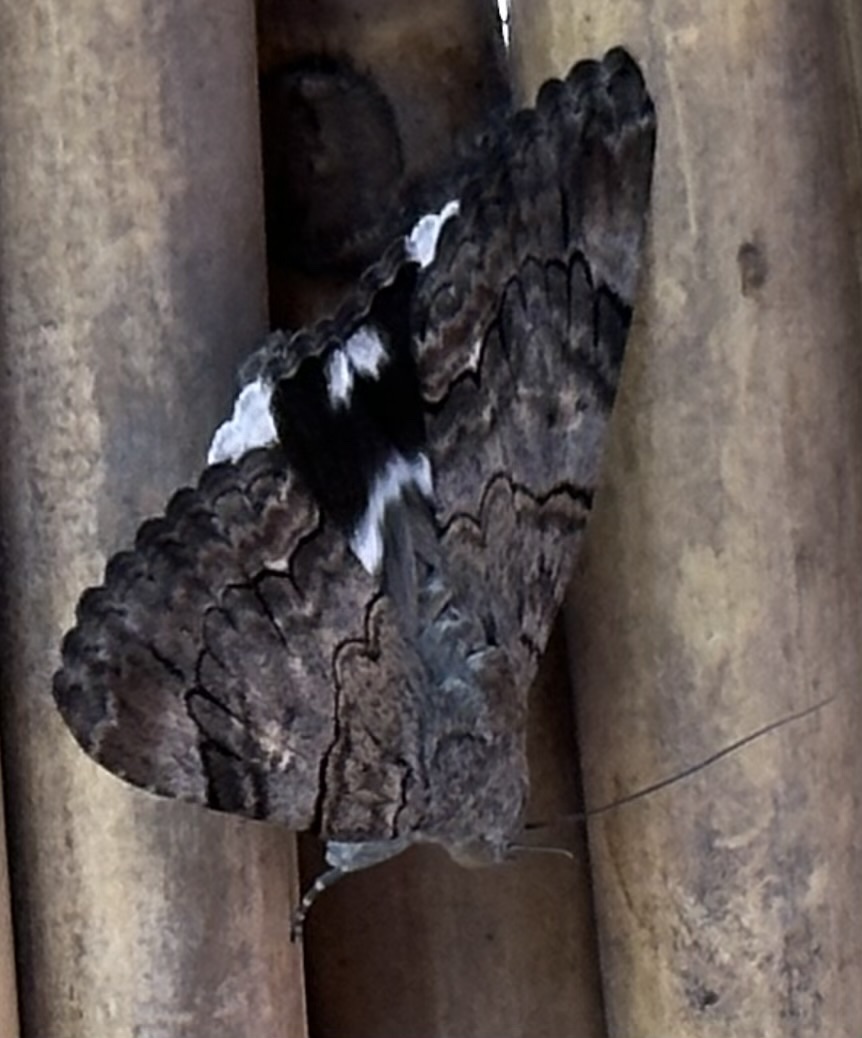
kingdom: Animalia
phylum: Arthropoda
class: Insecta
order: Lepidoptera
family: Erebidae
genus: Achaea
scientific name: Achaea catella
